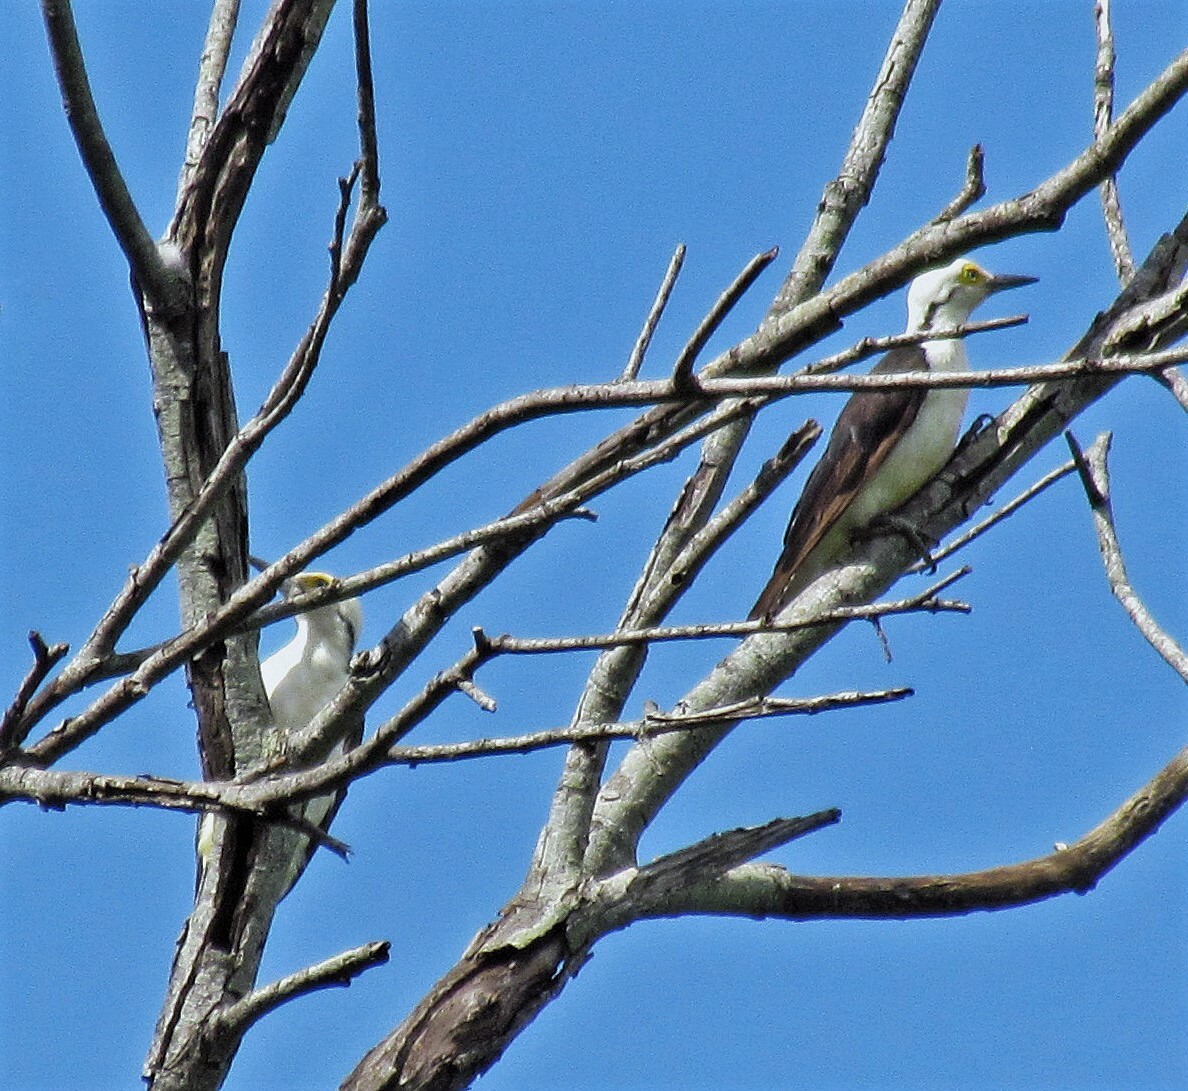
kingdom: Animalia
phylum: Chordata
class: Aves
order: Piciformes
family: Picidae
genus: Melanerpes
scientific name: Melanerpes candidus
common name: White woodpecker
